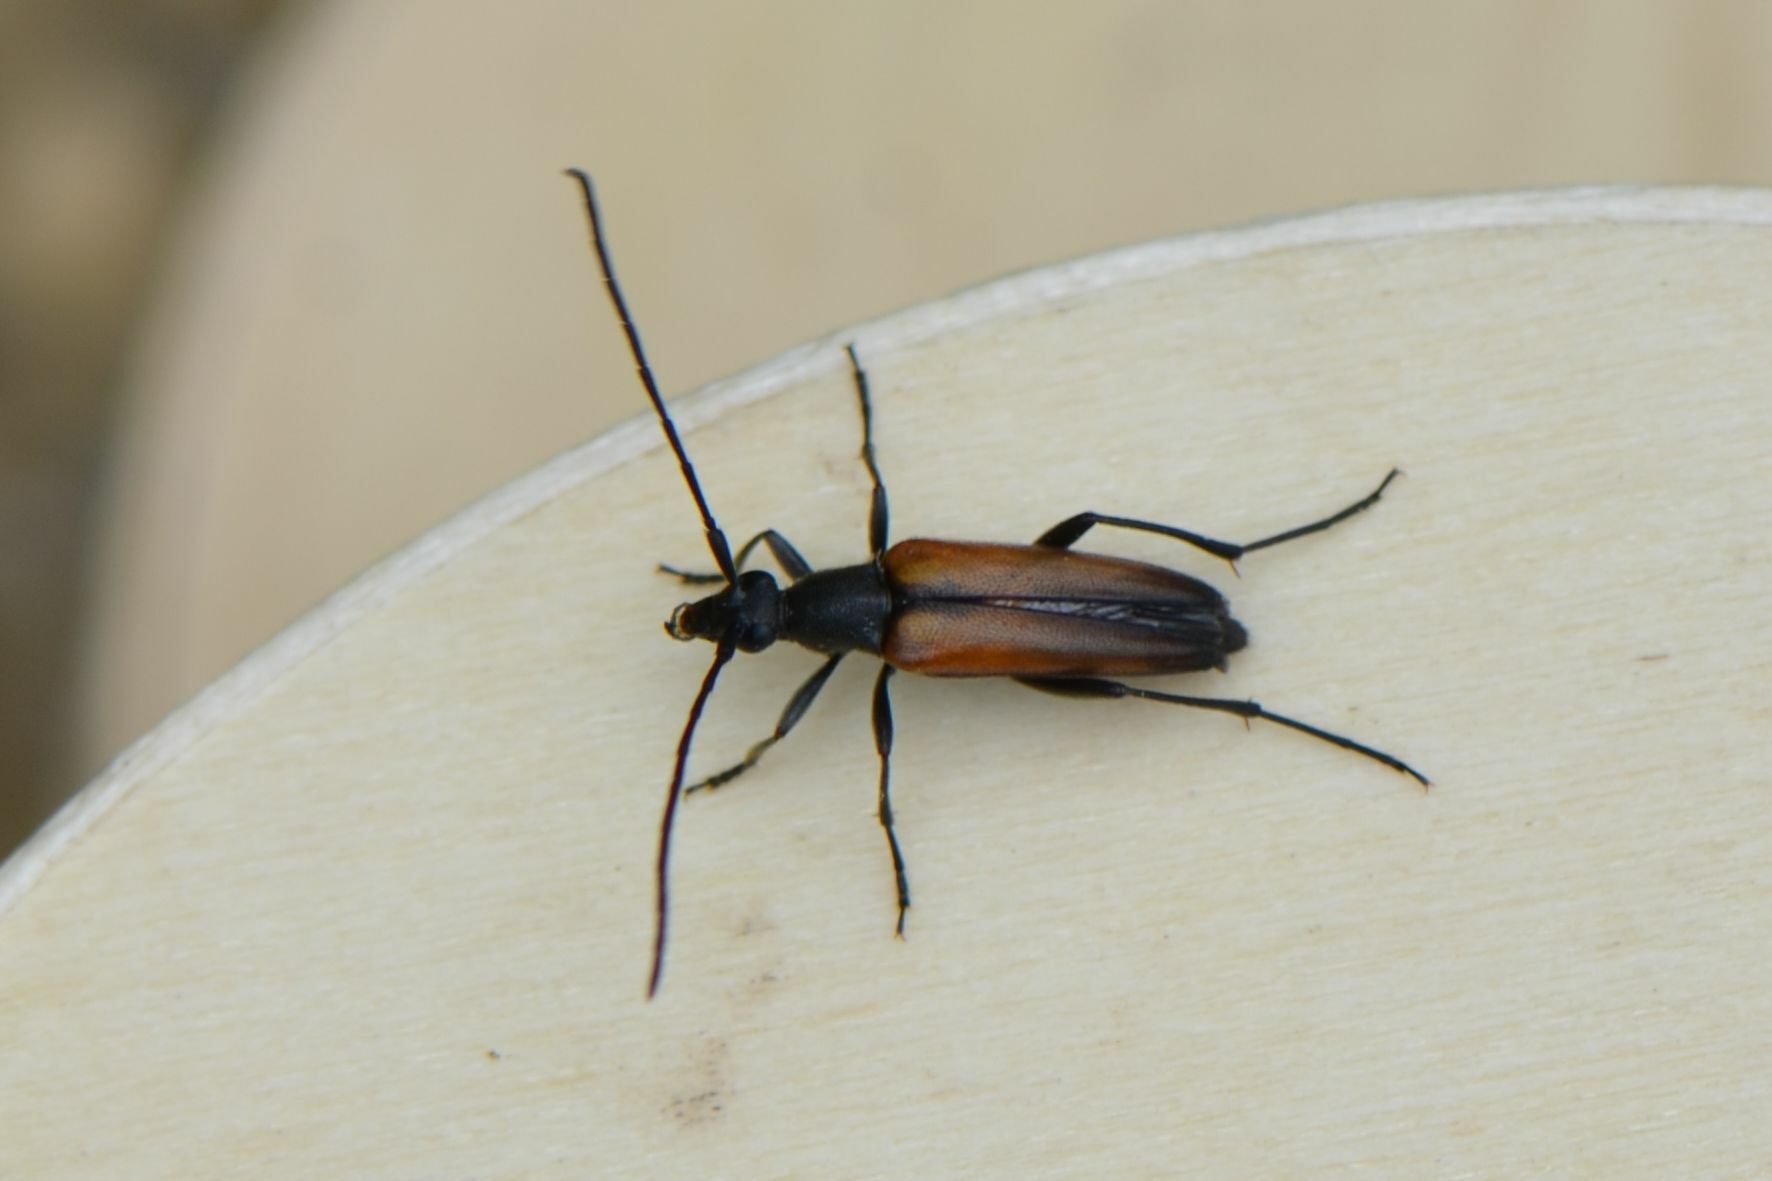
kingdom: Animalia
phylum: Arthropoda
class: Insecta
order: Coleoptera
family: Cerambycidae
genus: Stenurella
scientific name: Stenurella melanura
